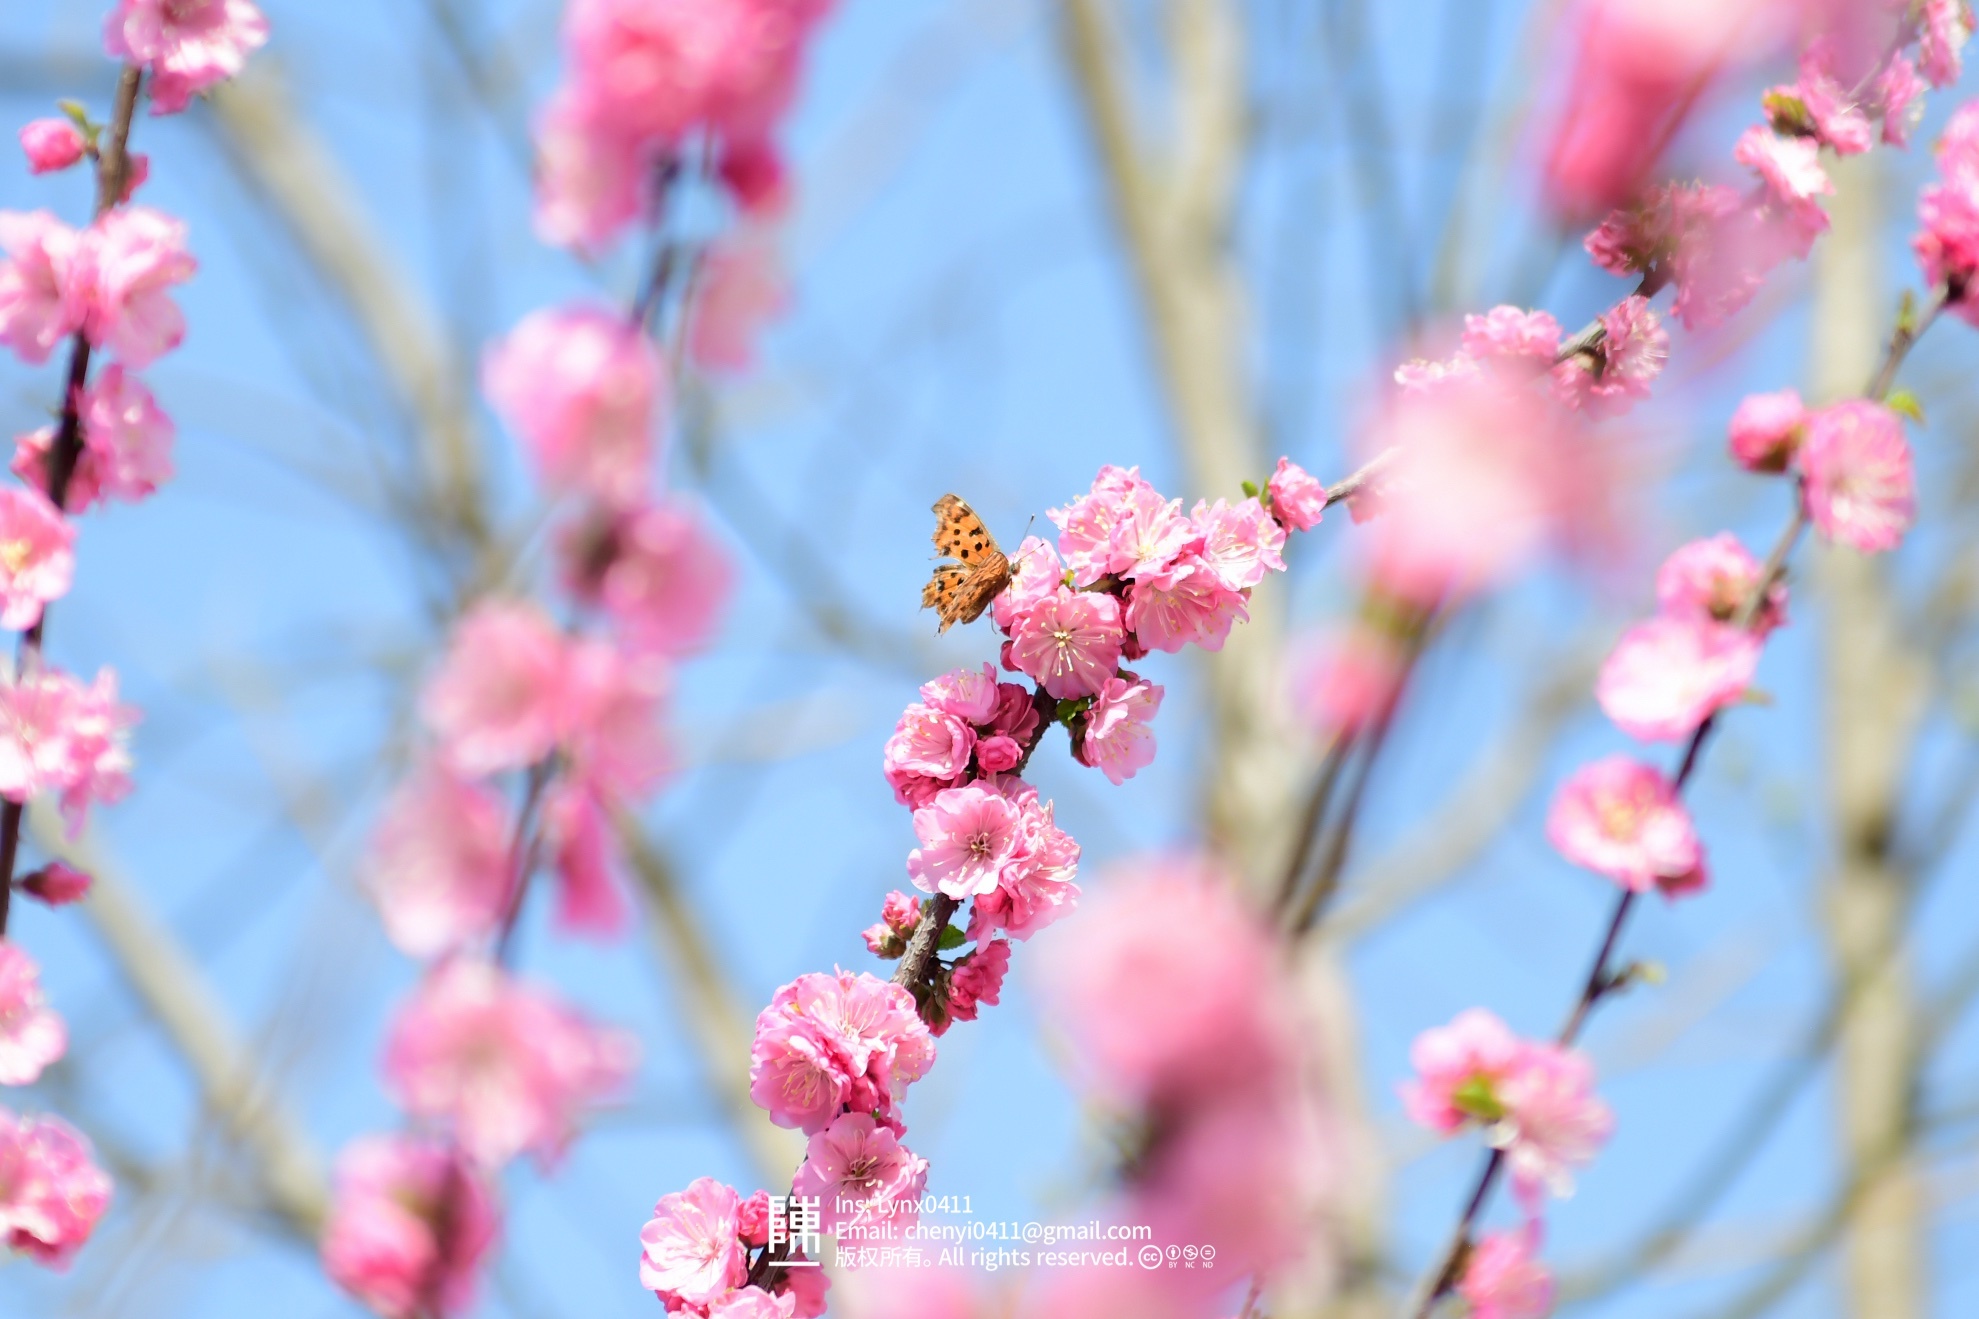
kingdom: Animalia
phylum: Arthropoda
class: Insecta
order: Lepidoptera
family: Nymphalidae
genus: Polygonia
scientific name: Polygonia c-album
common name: Comma
